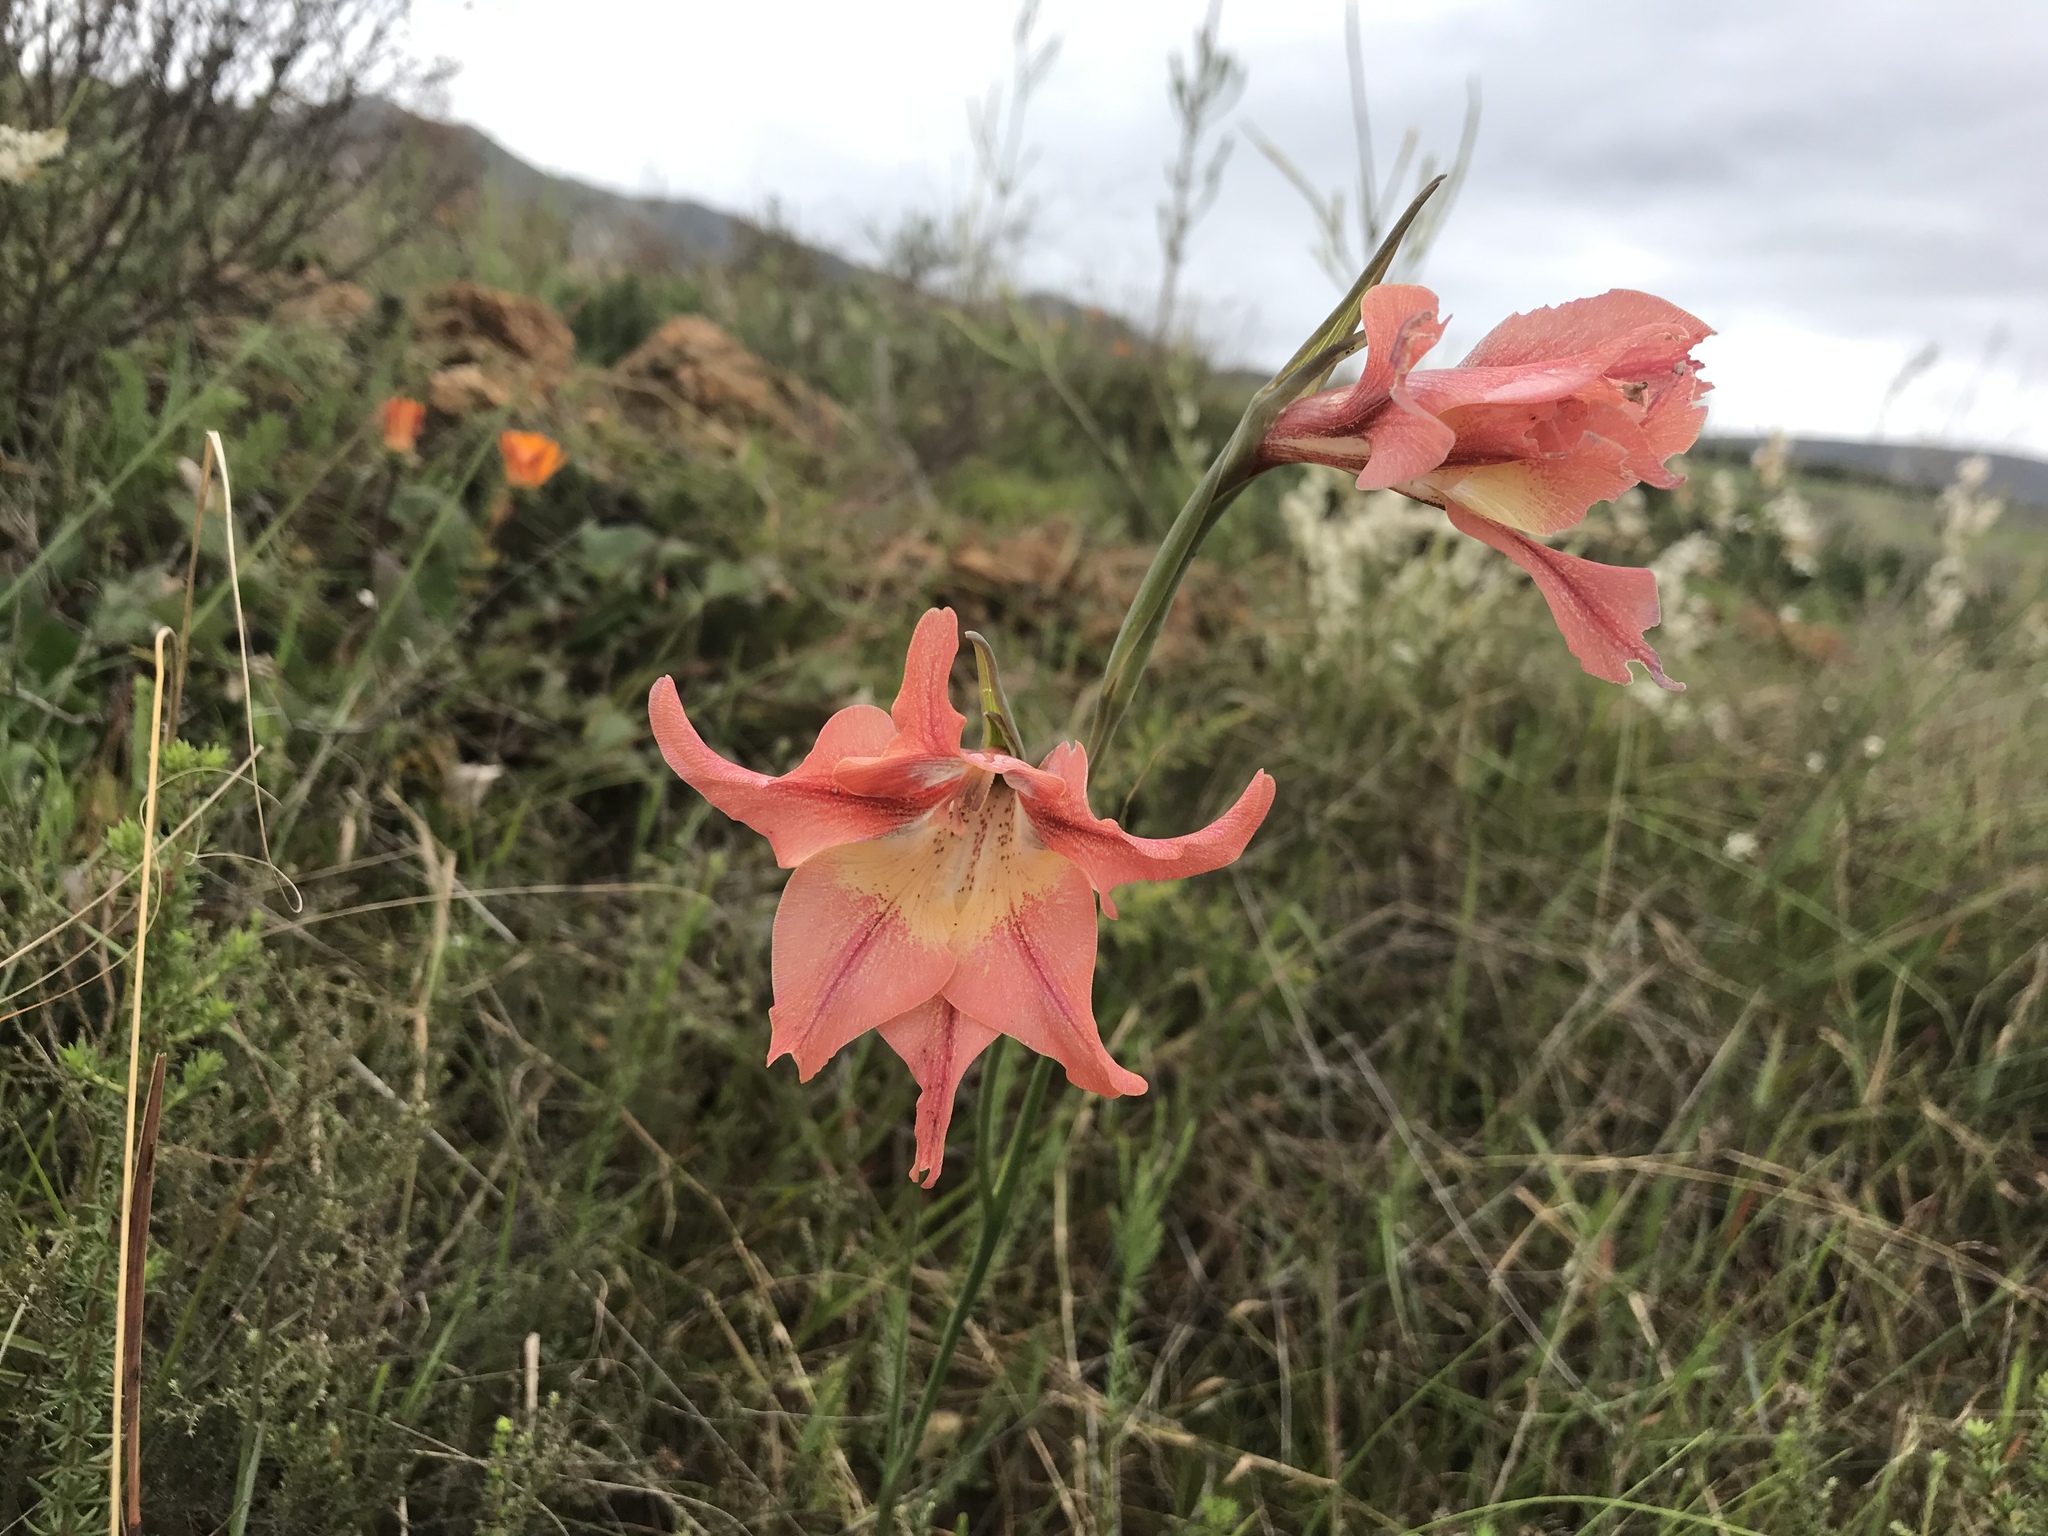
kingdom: Plantae
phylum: Tracheophyta
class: Liliopsida
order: Asparagales
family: Iridaceae
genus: Gladiolus
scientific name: Gladiolus liliaceus
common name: Large brown afrikaner
